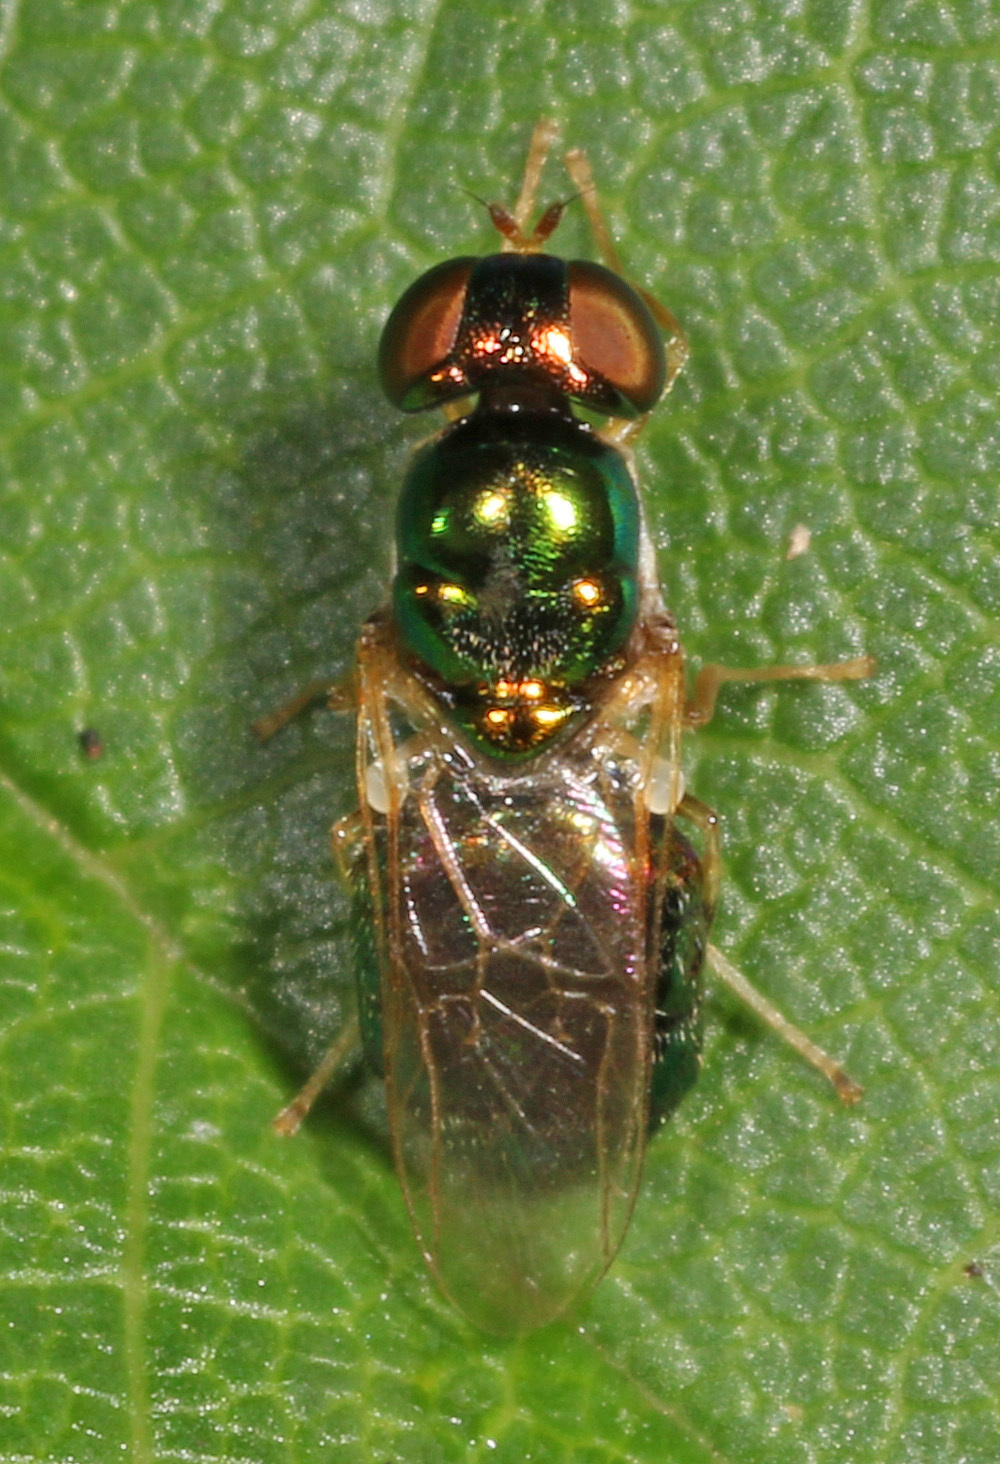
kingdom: Animalia
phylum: Arthropoda
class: Insecta
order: Diptera
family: Stratiomyidae
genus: Microchrysa
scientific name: Microchrysa flaviventris
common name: Soldier fly
